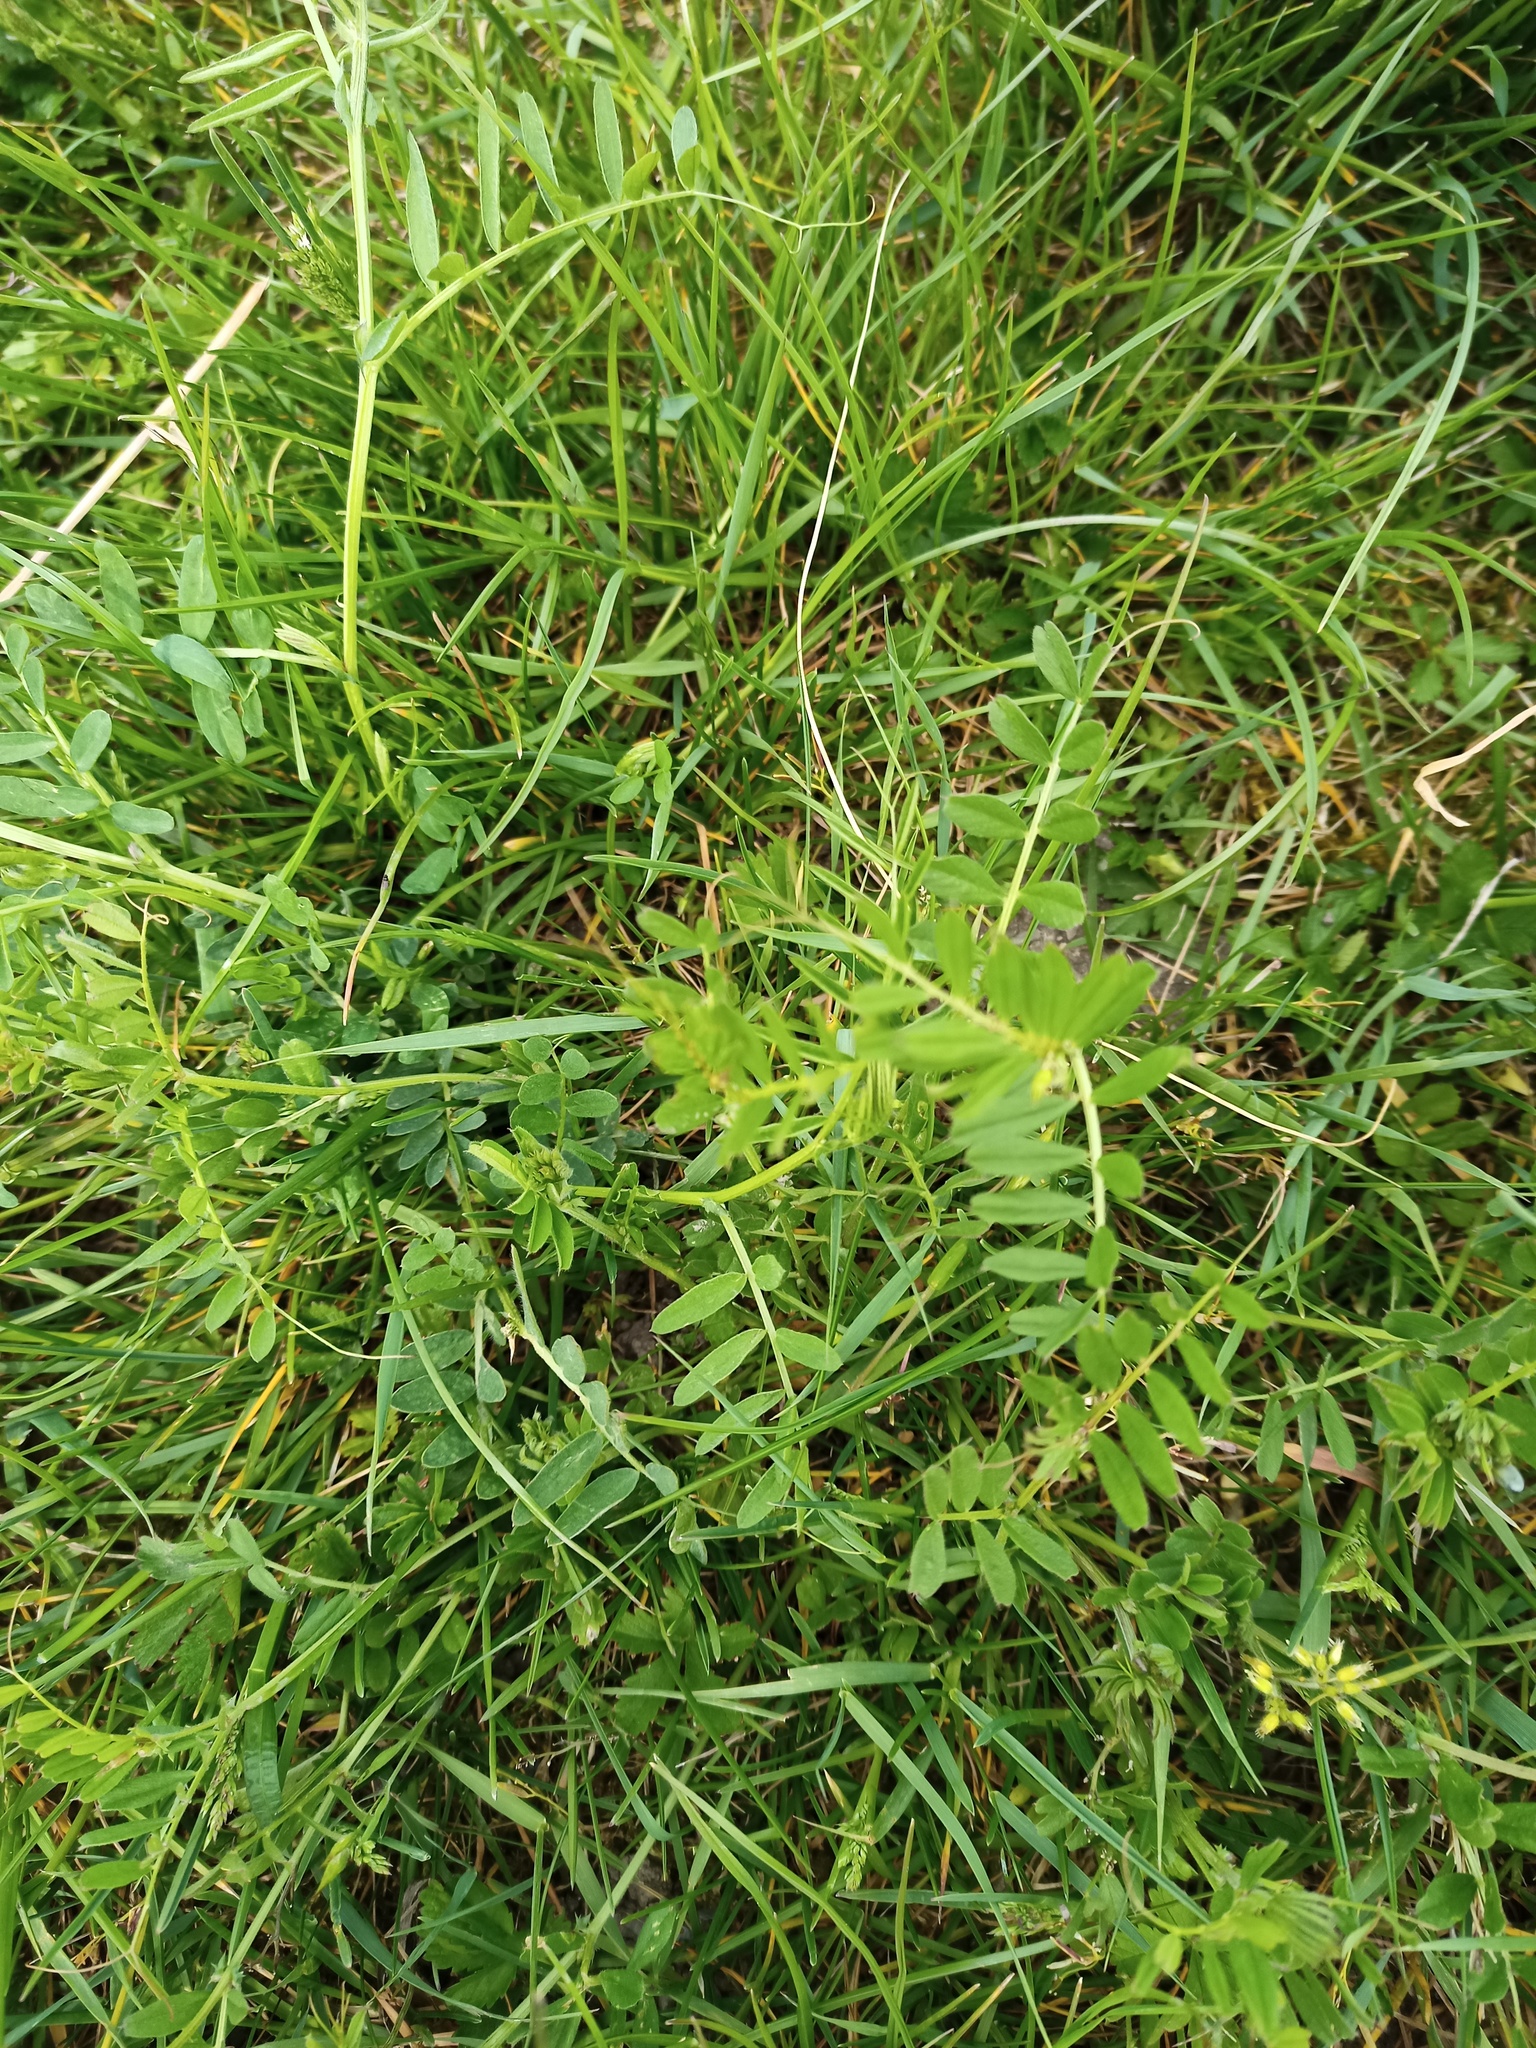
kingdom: Plantae
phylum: Tracheophyta
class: Magnoliopsida
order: Fabales
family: Fabaceae
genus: Vicia
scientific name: Vicia sativa
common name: Garden vetch
